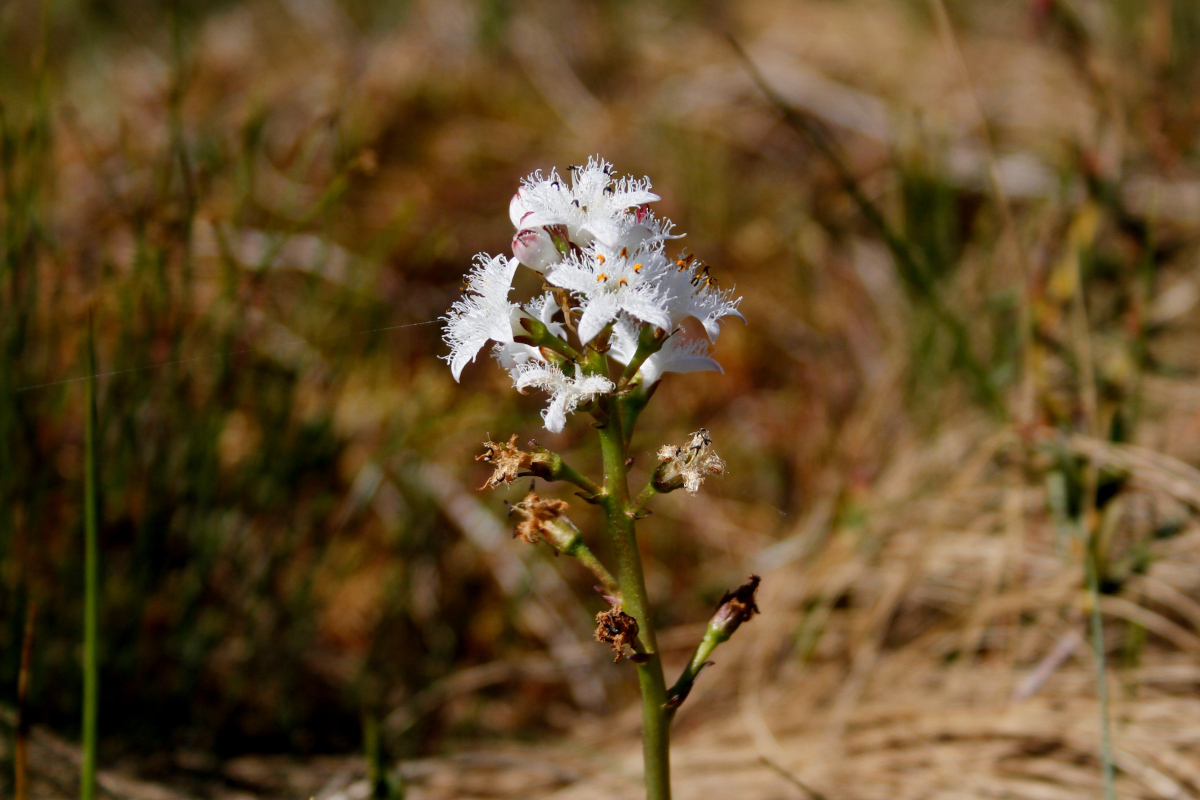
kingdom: Plantae
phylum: Tracheophyta
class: Magnoliopsida
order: Asterales
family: Menyanthaceae
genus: Menyanthes
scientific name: Menyanthes trifoliata
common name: Bogbean
